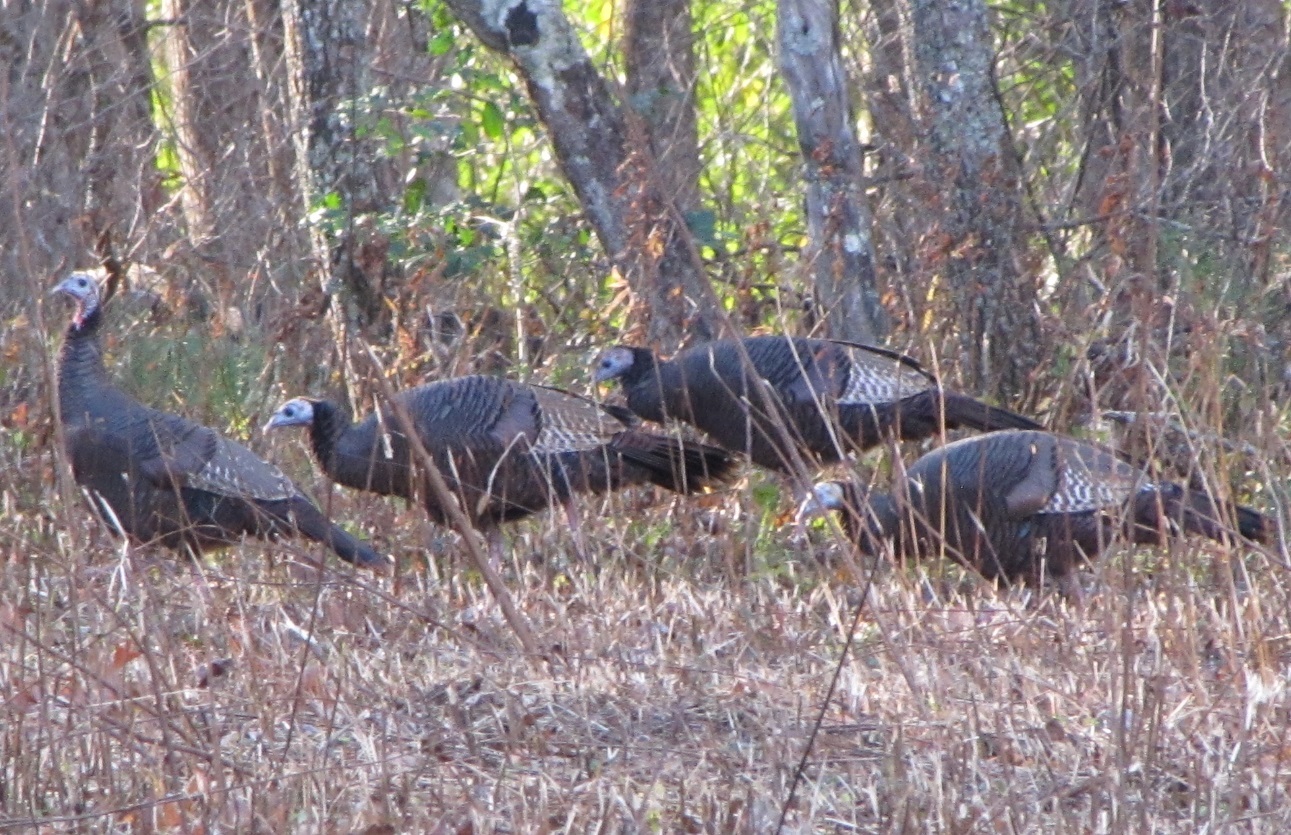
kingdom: Animalia
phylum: Chordata
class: Aves
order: Galliformes
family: Phasianidae
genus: Meleagris
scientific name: Meleagris gallopavo
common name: Wild turkey
